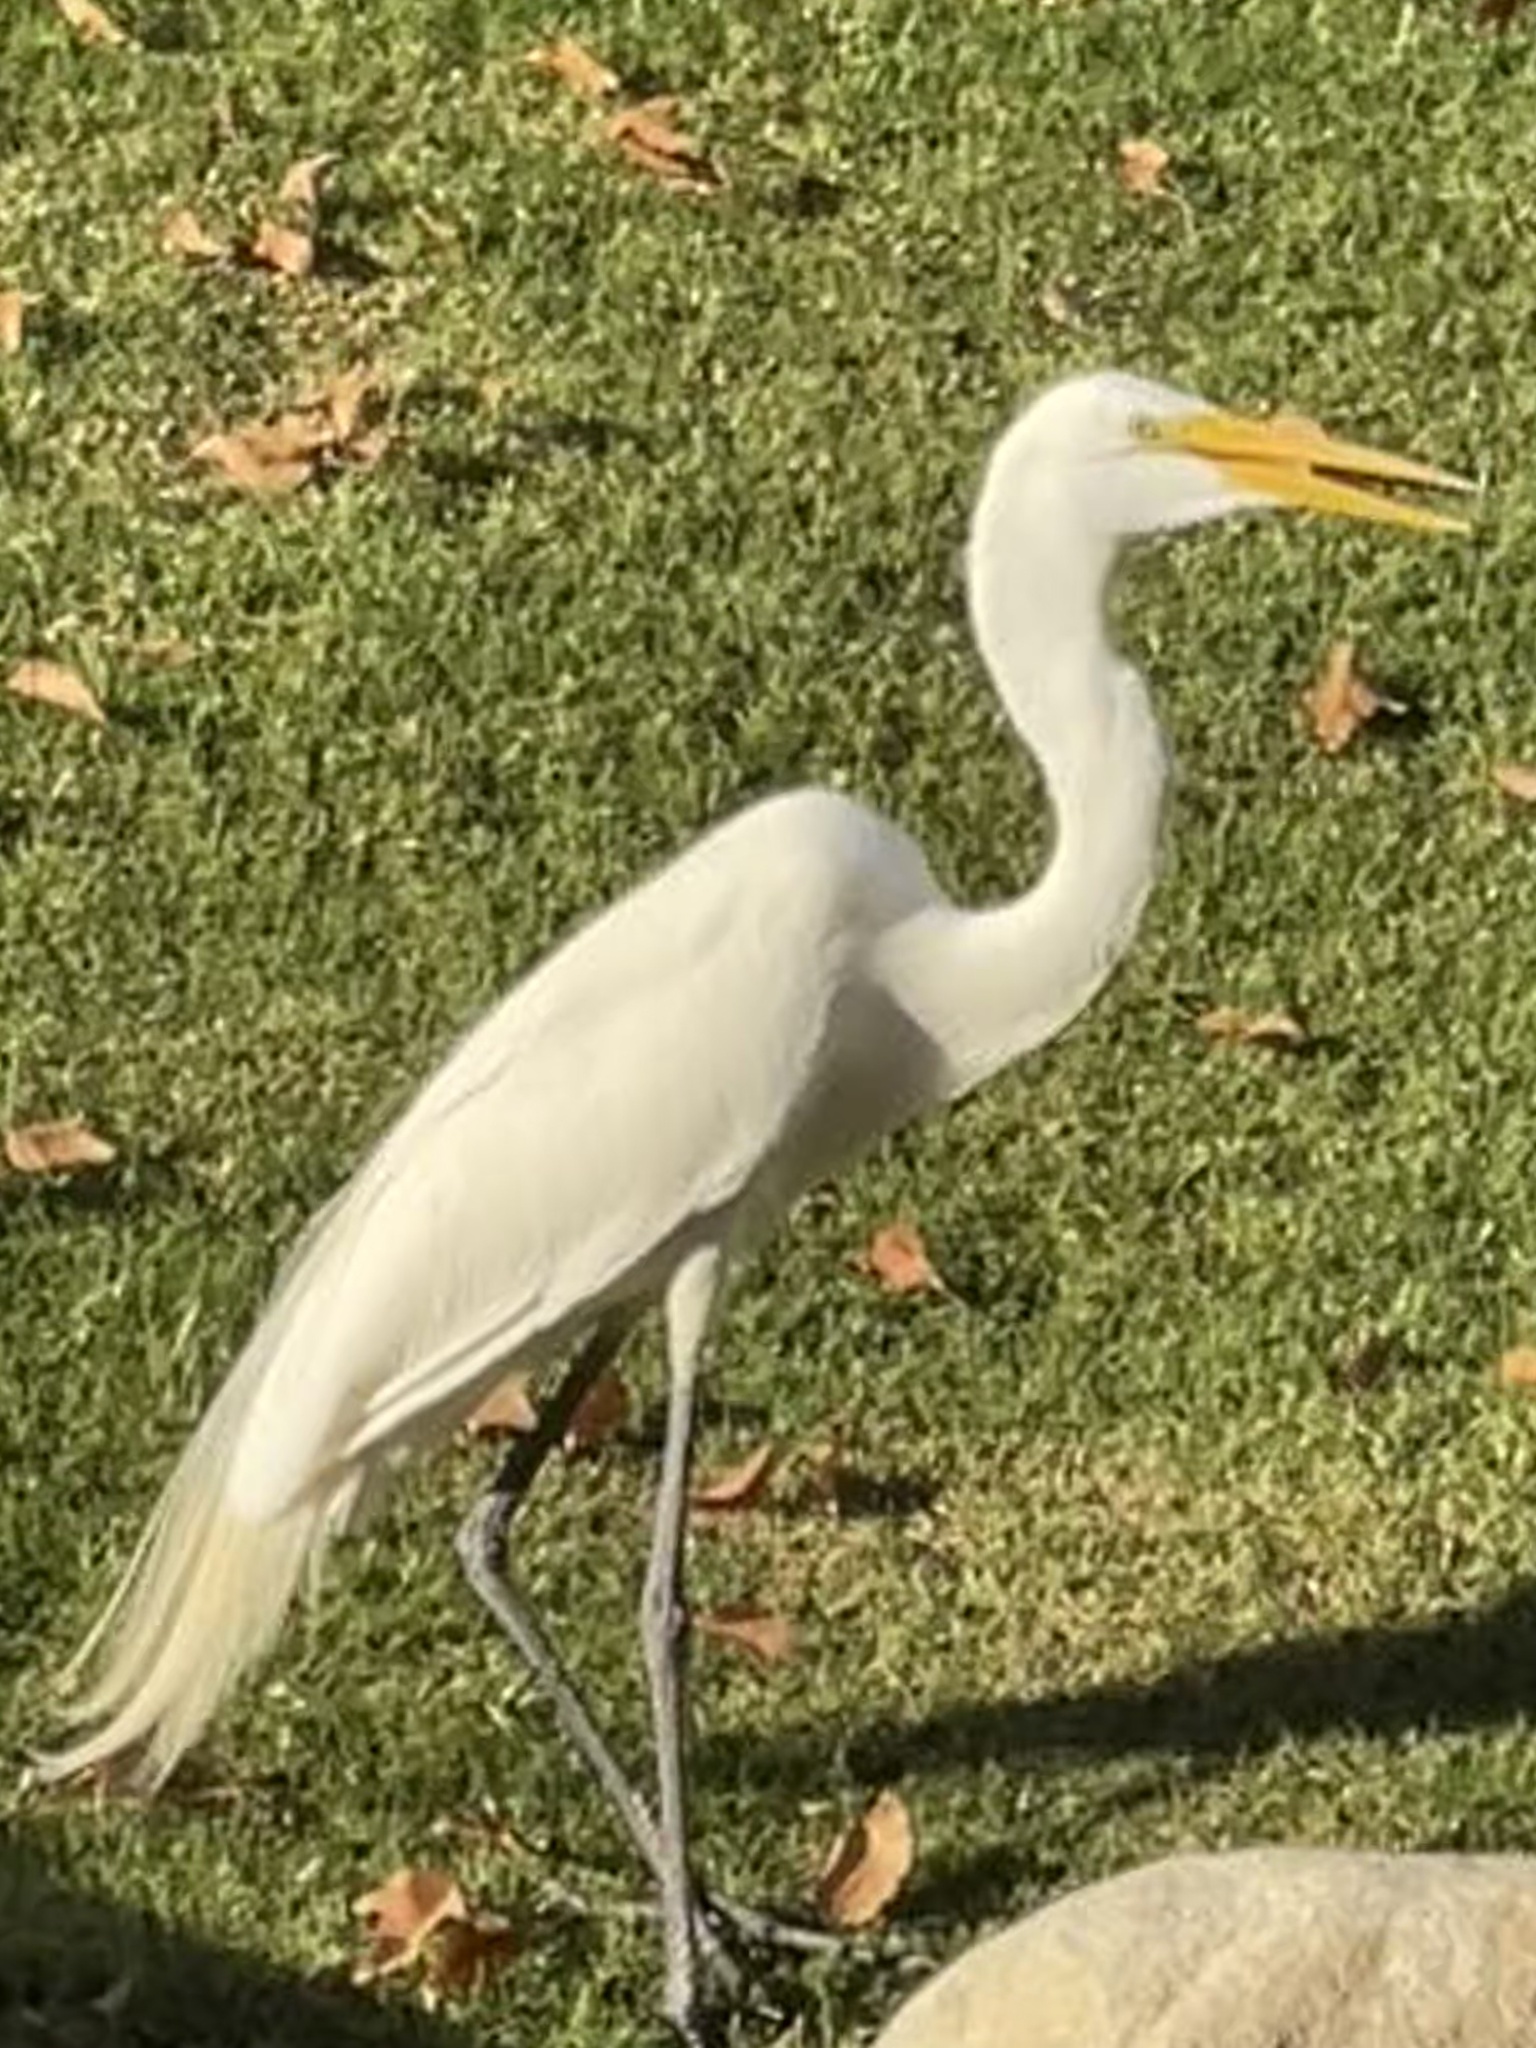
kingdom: Animalia
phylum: Chordata
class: Aves
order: Pelecaniformes
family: Ardeidae
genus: Ardea
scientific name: Ardea alba
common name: Great egret
